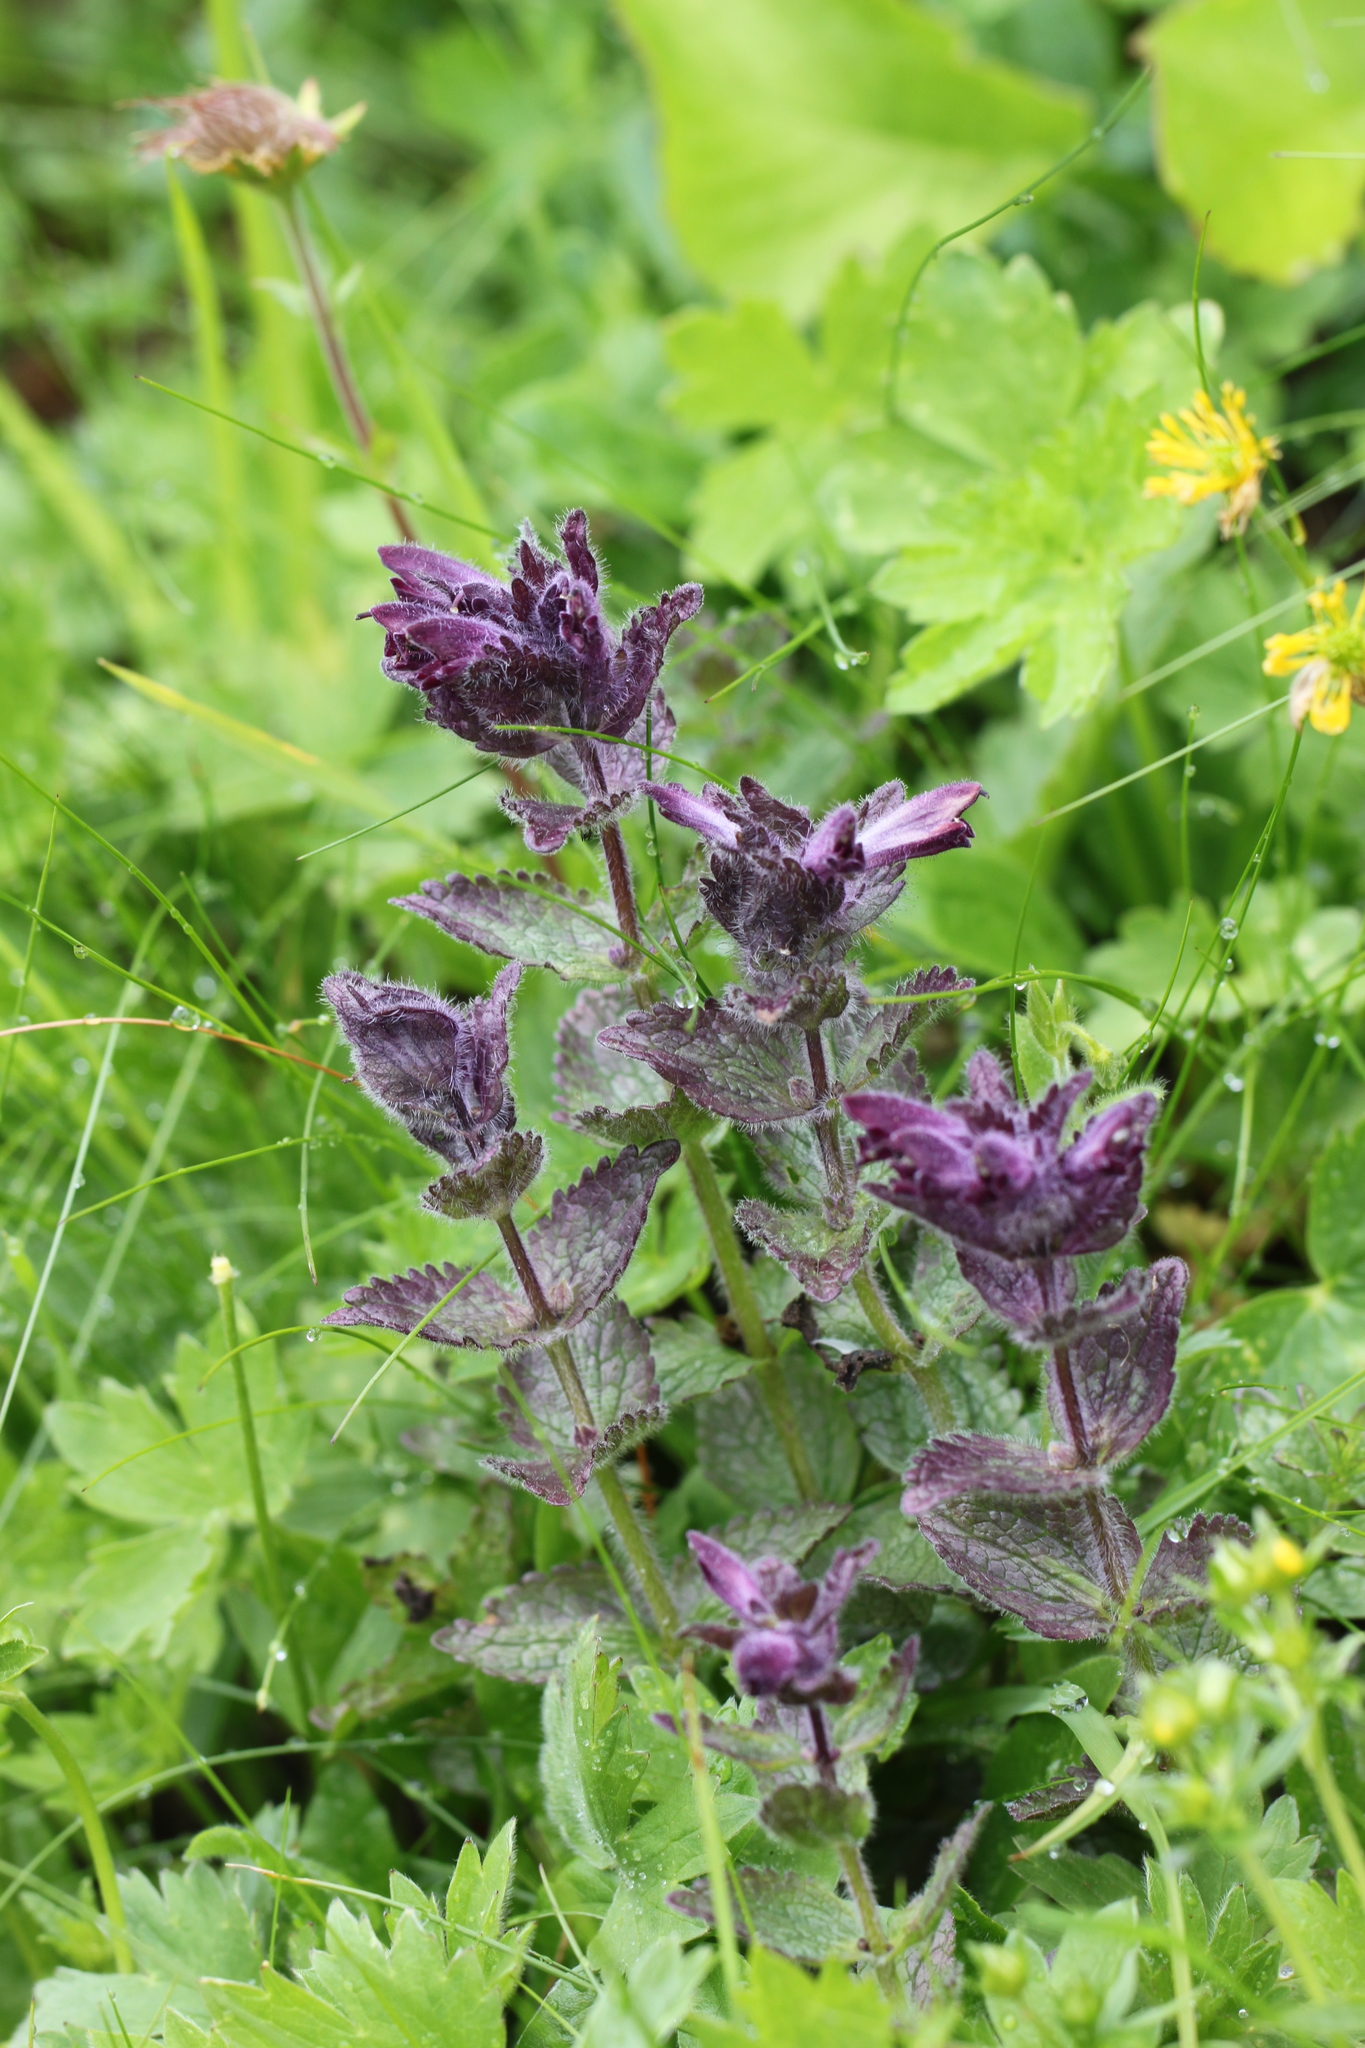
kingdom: Plantae
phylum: Tracheophyta
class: Magnoliopsida
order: Lamiales
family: Orobanchaceae
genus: Bartsia
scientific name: Bartsia alpina
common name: Alpine bartsia
